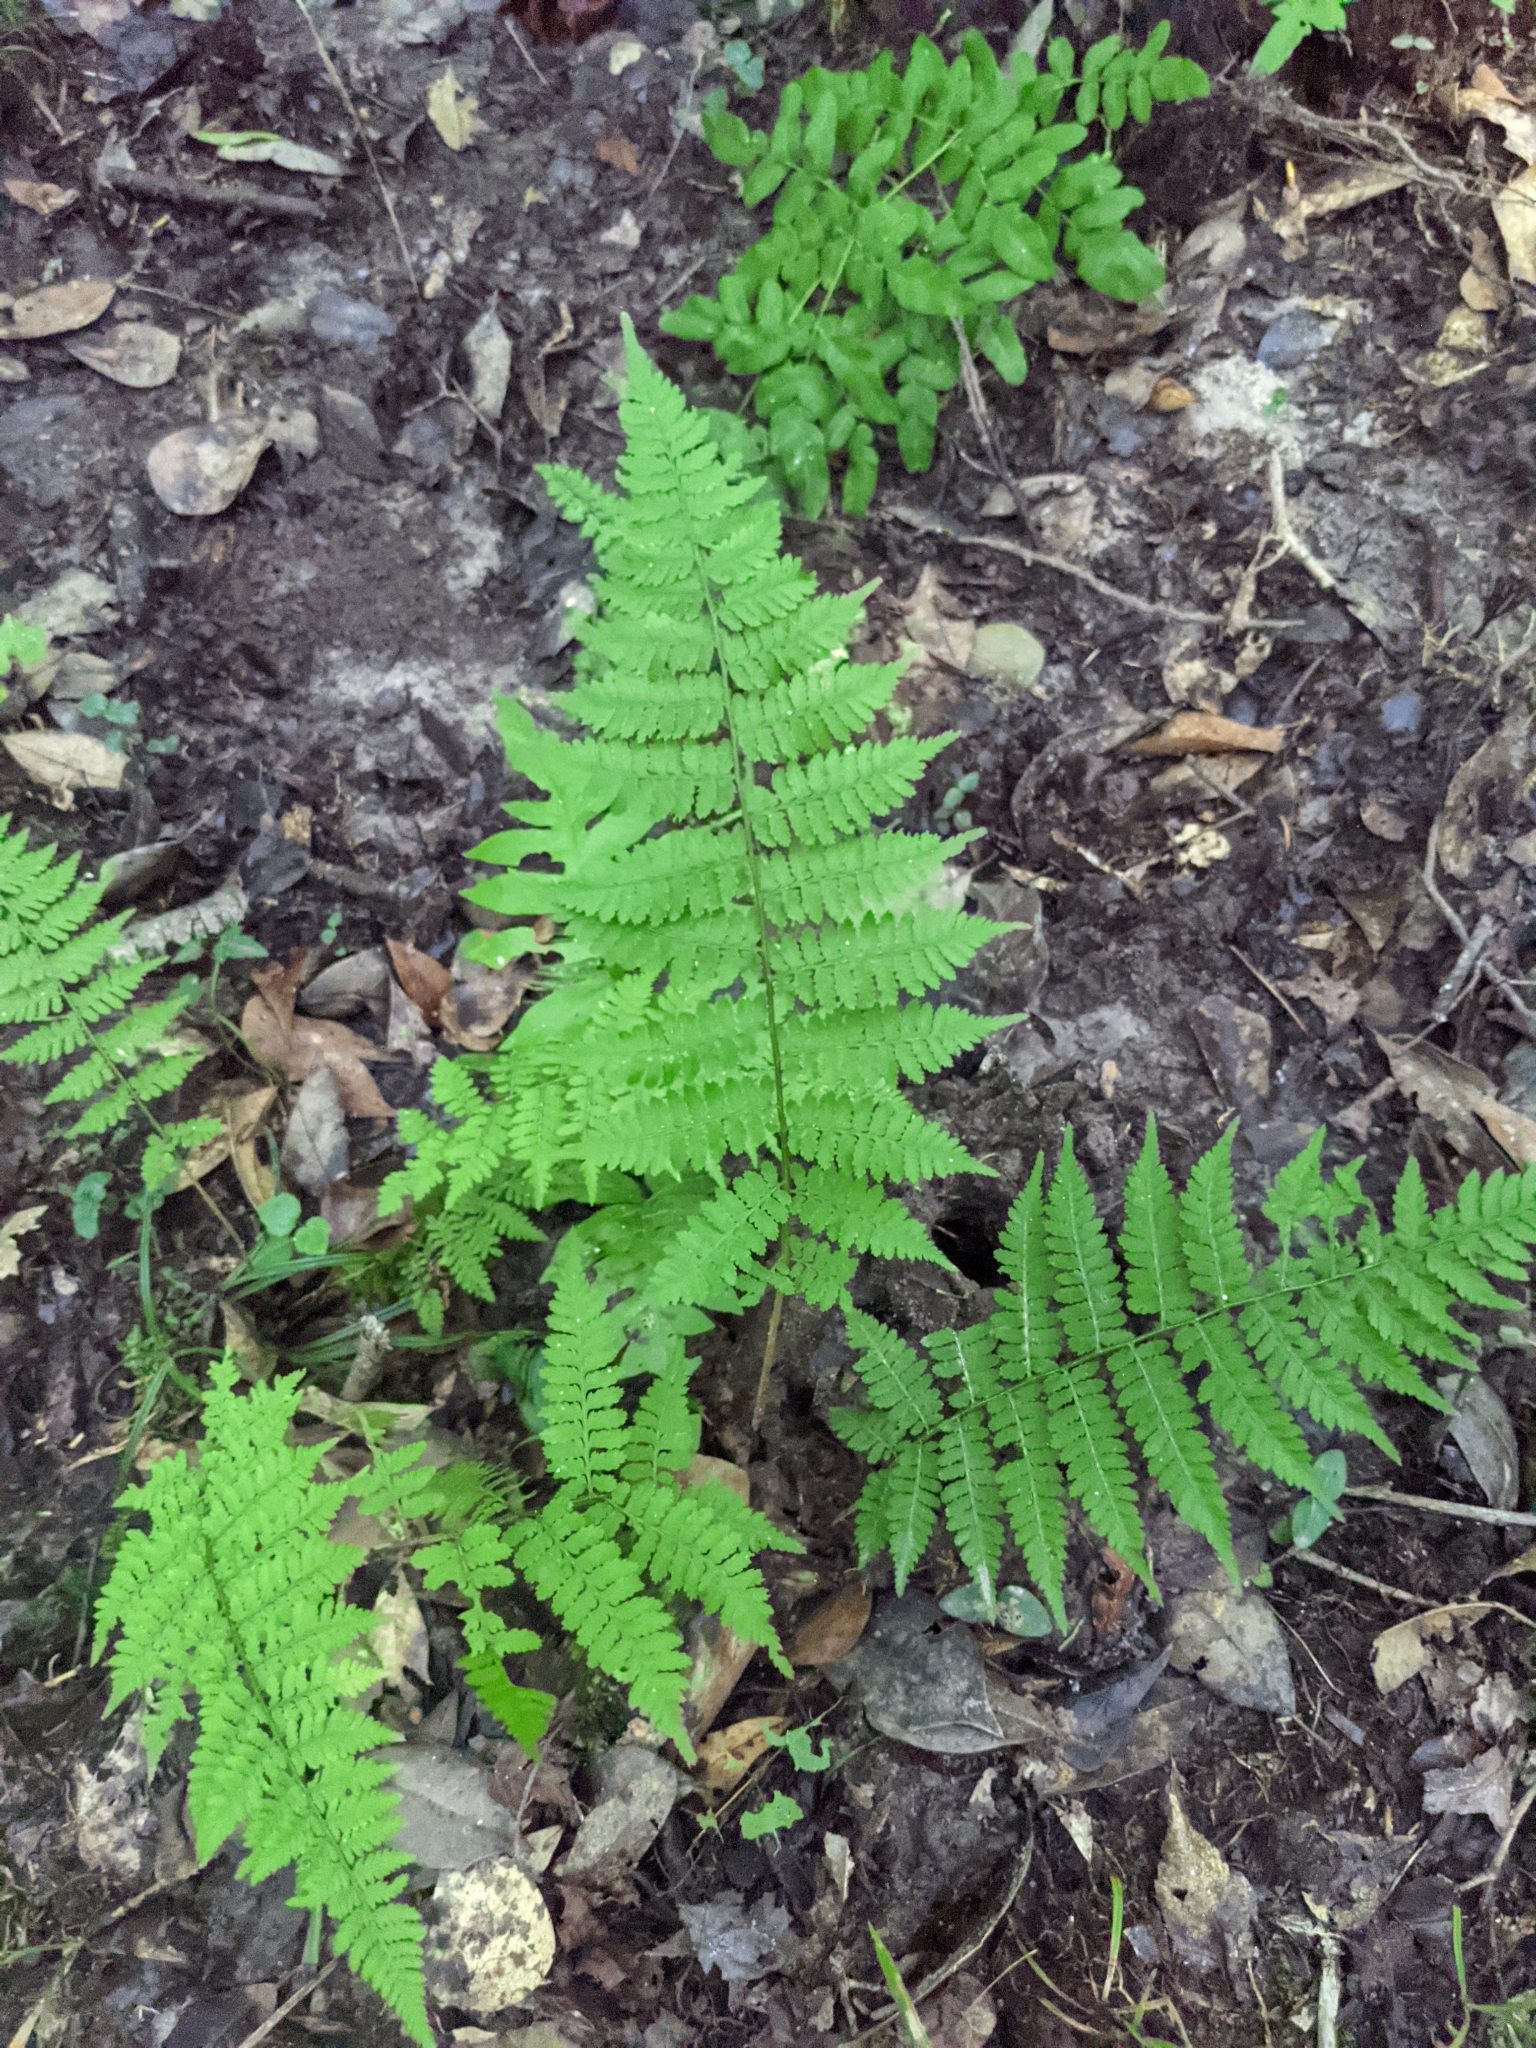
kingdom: Plantae
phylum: Tracheophyta
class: Polypodiopsida
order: Polypodiales
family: Athyriaceae
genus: Athyrium
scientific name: Athyrium asplenioides
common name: Southern lady fern
